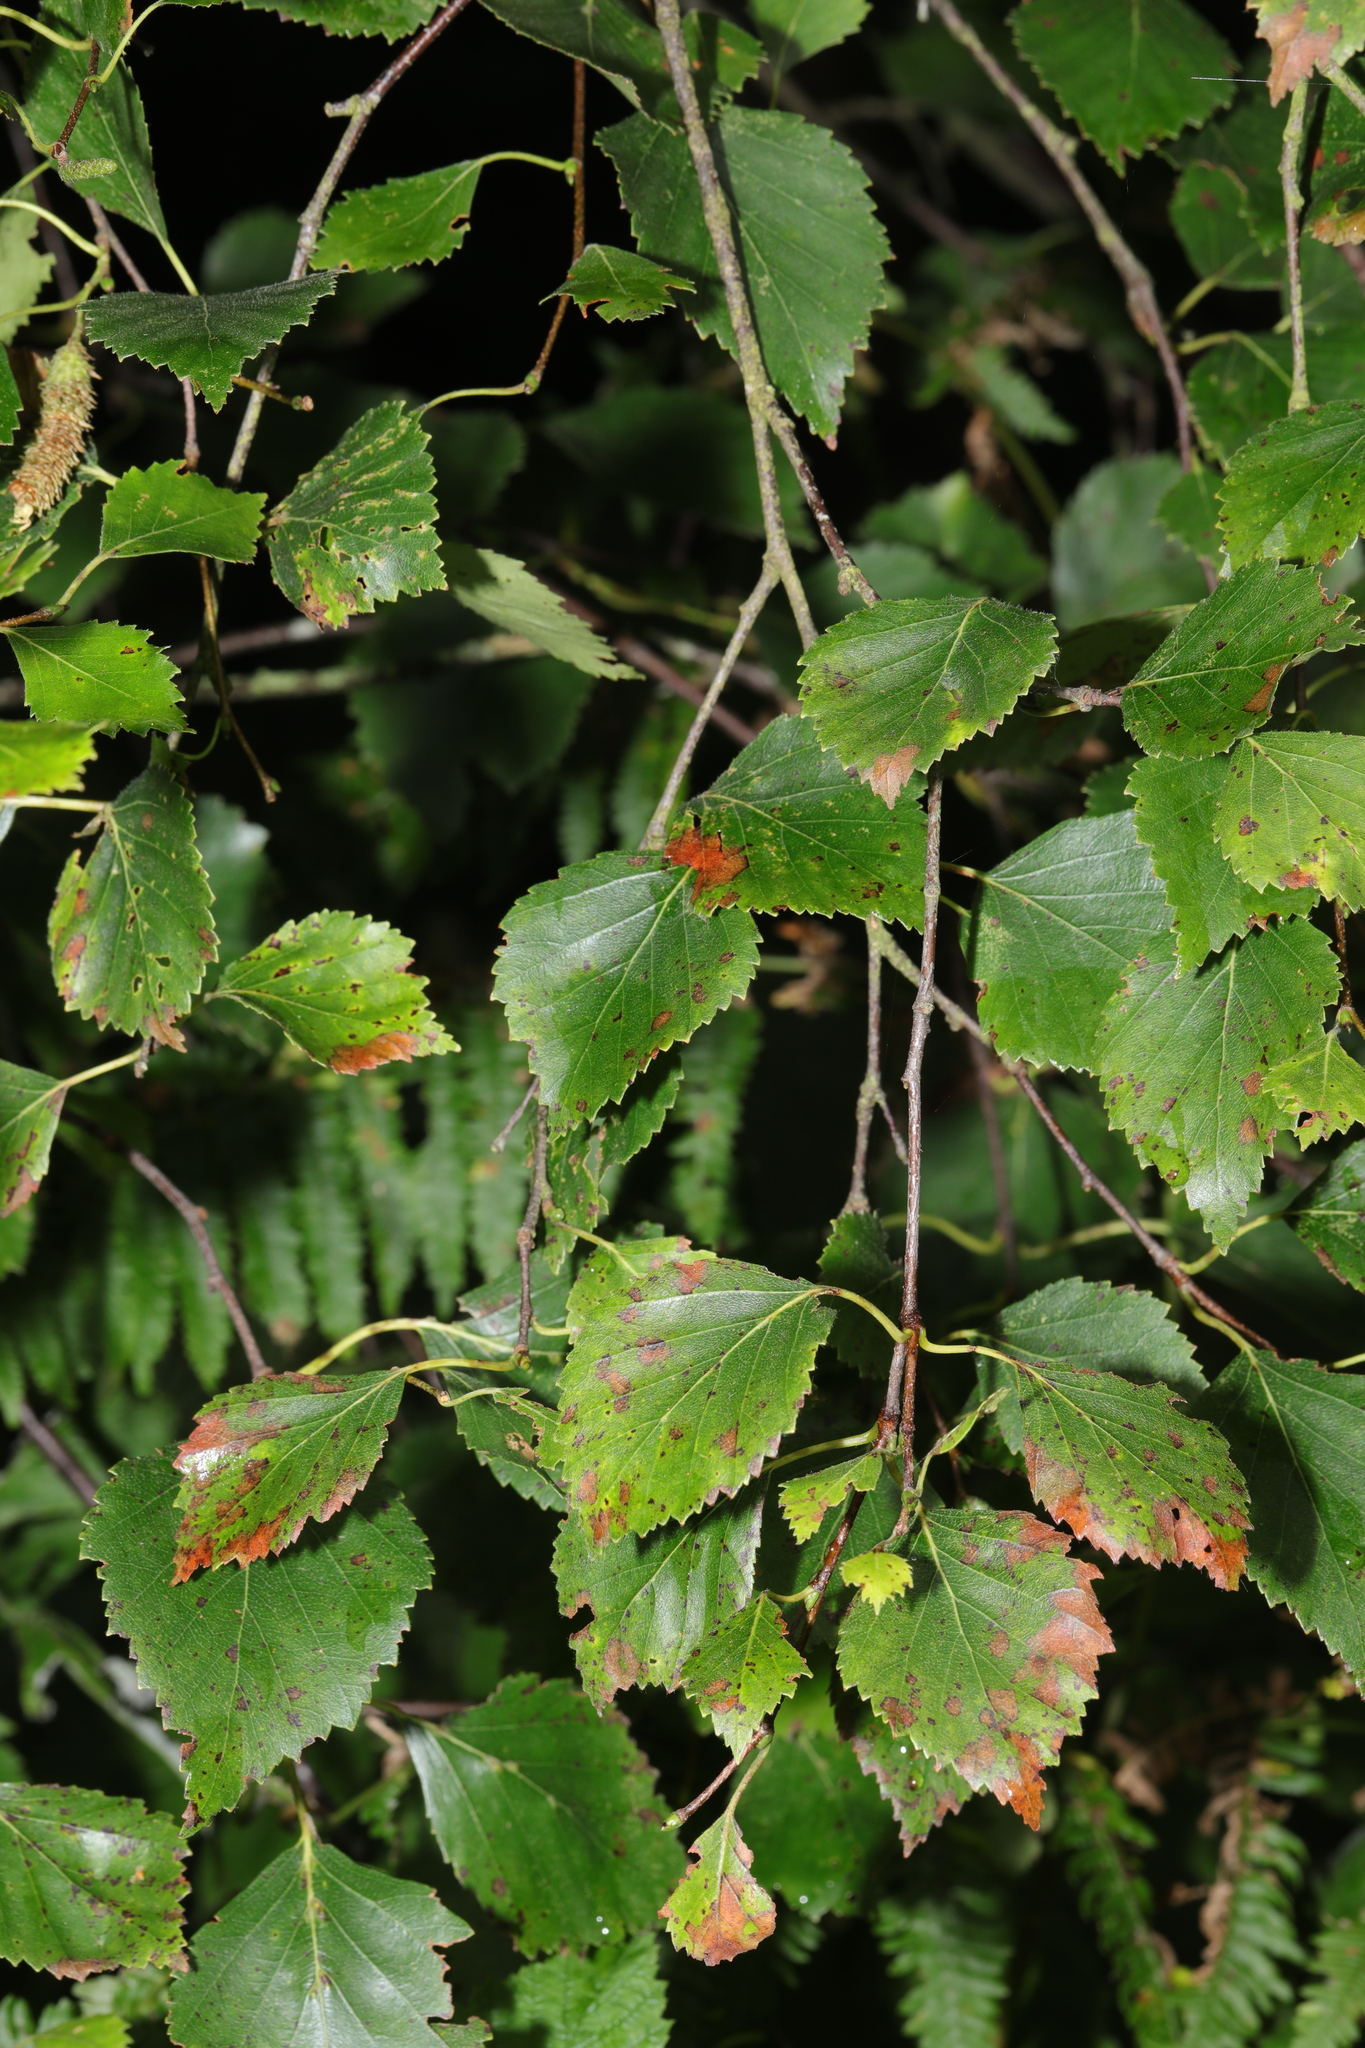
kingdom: Plantae
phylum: Tracheophyta
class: Magnoliopsida
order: Fagales
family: Betulaceae
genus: Betula
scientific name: Betula pubescens
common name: Downy birch
